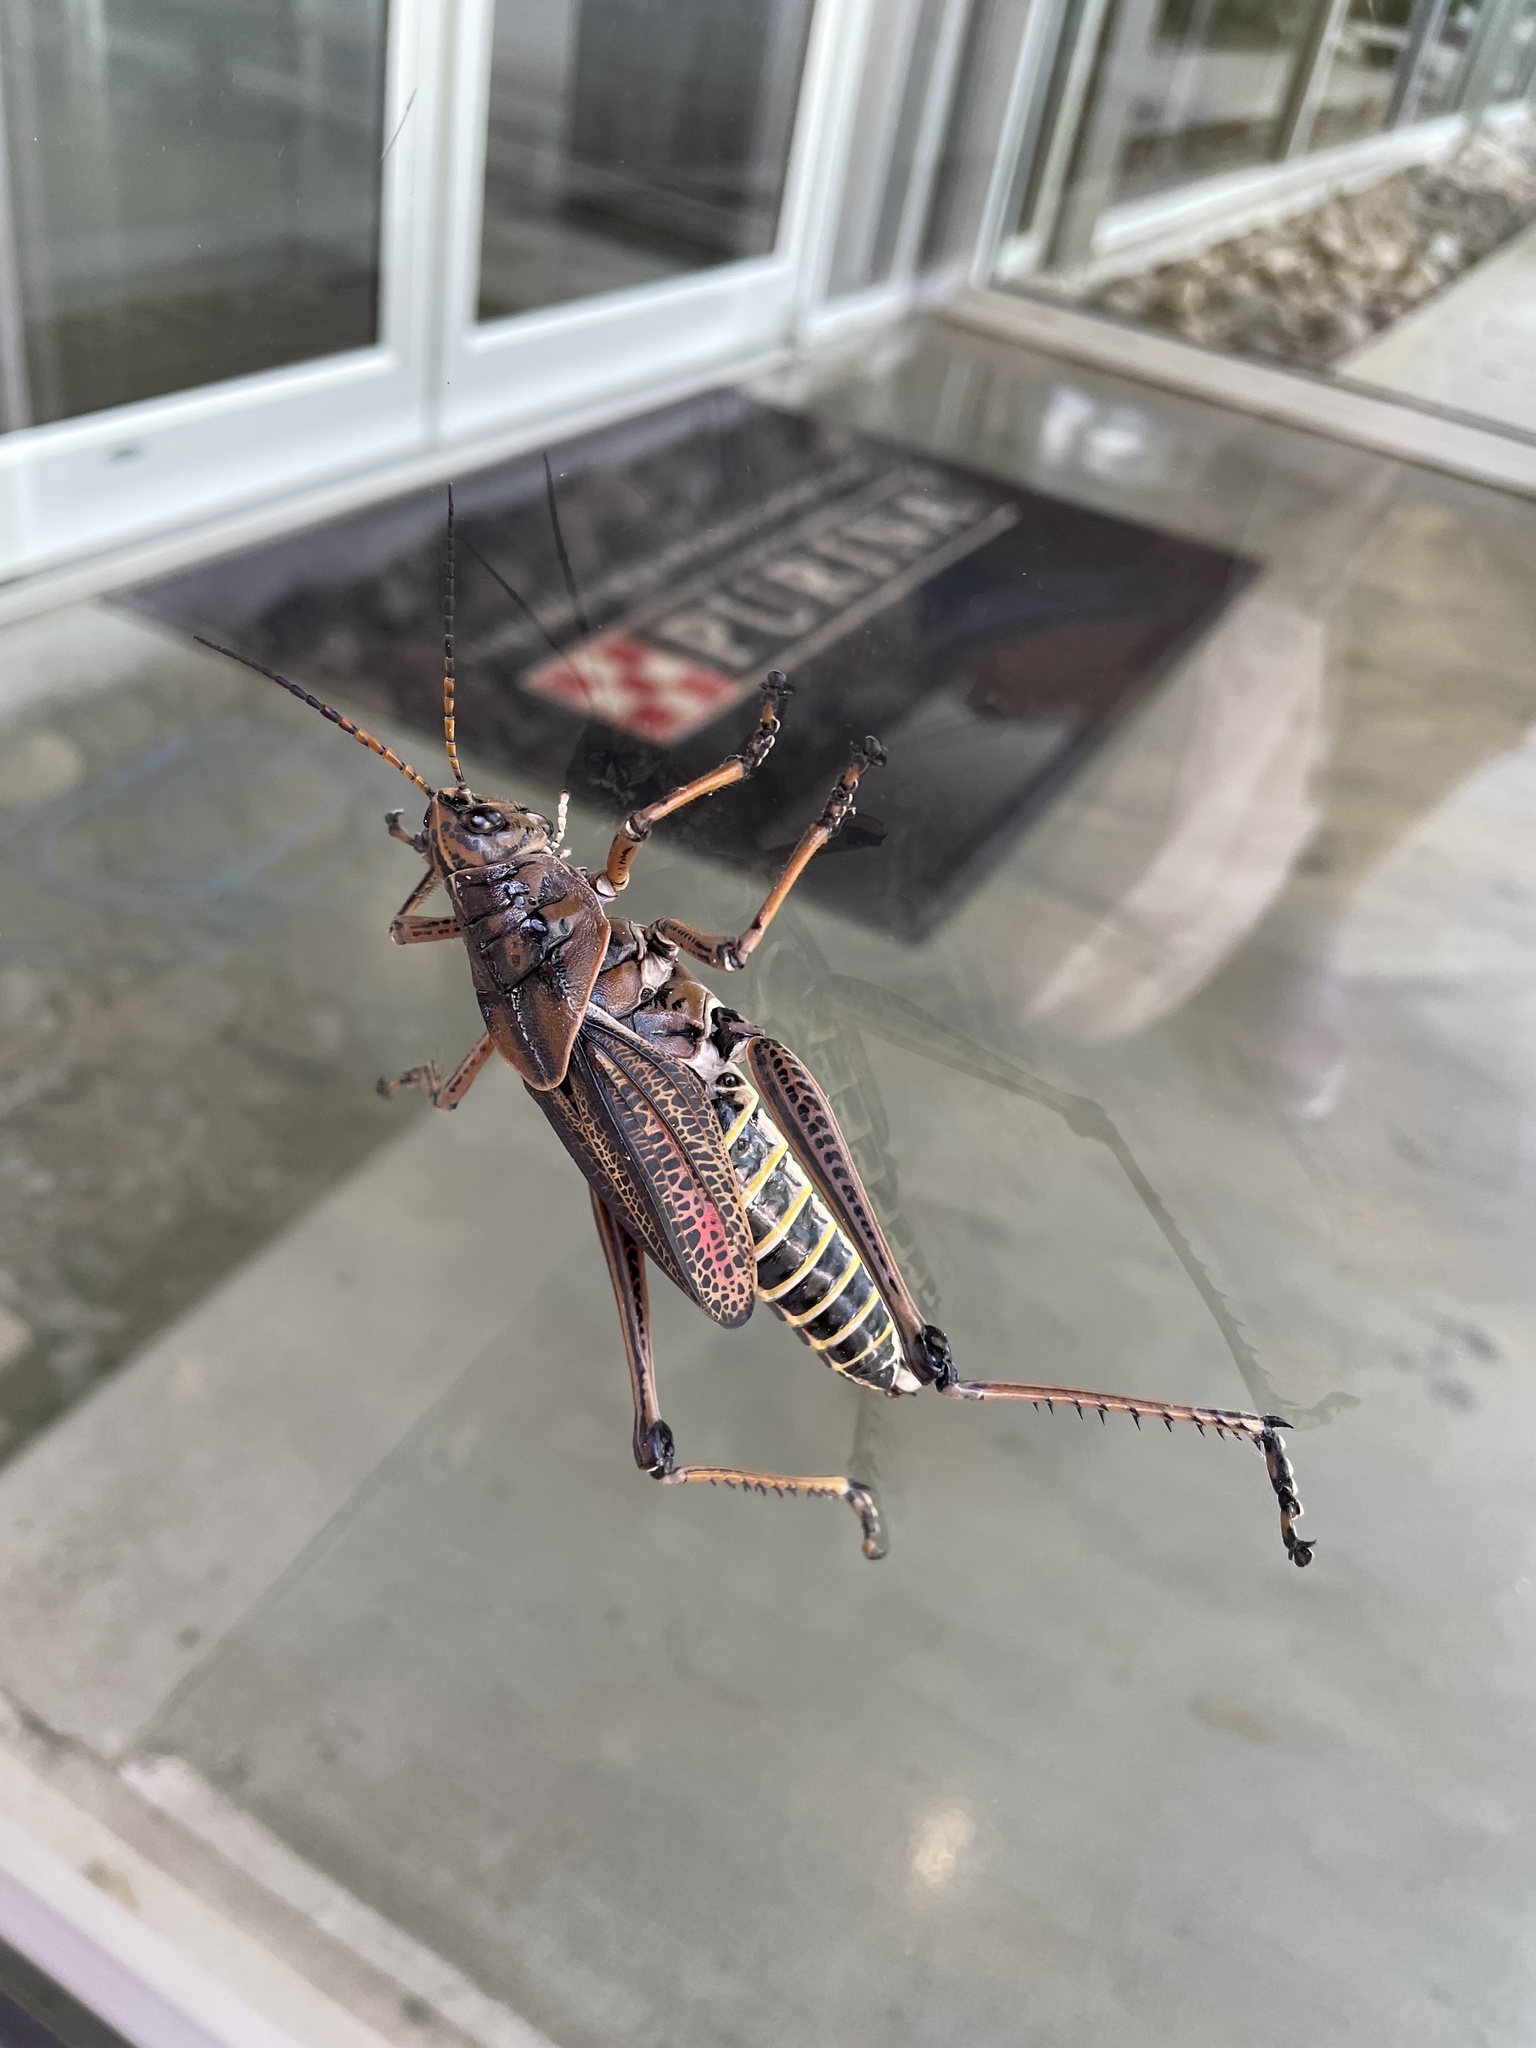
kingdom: Animalia
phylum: Arthropoda
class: Insecta
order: Orthoptera
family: Romaleidae
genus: Romalea
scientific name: Romalea microptera
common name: Eastern lubber grasshopper
